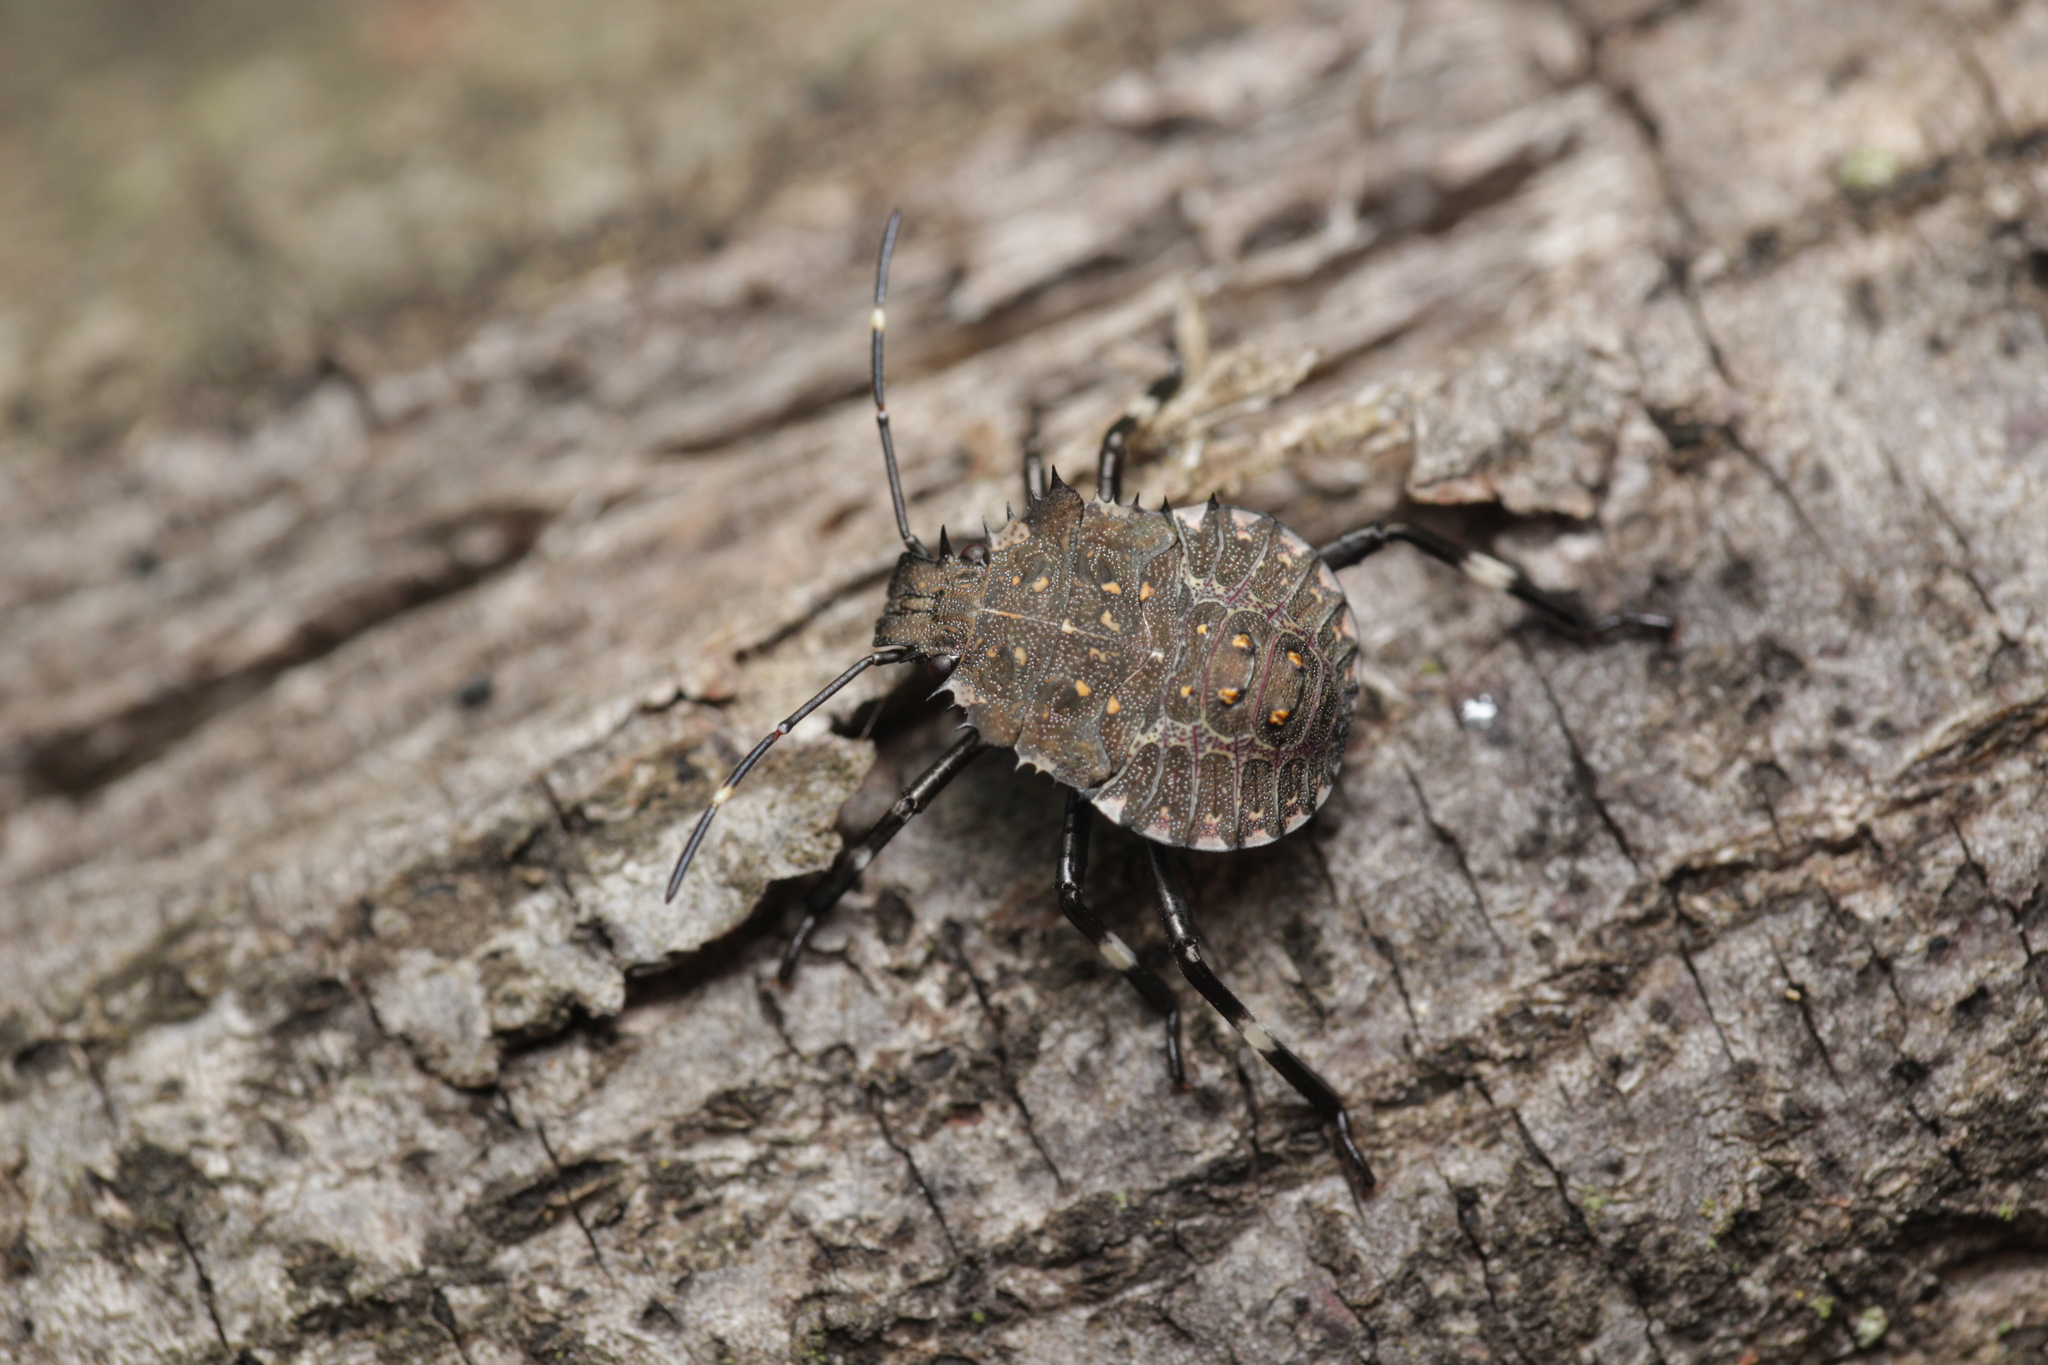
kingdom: Animalia
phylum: Arthropoda
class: Insecta
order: Hemiptera
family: Pentatomidae
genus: Halyomorpha
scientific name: Halyomorpha halys
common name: Brown marmorated stink bug
